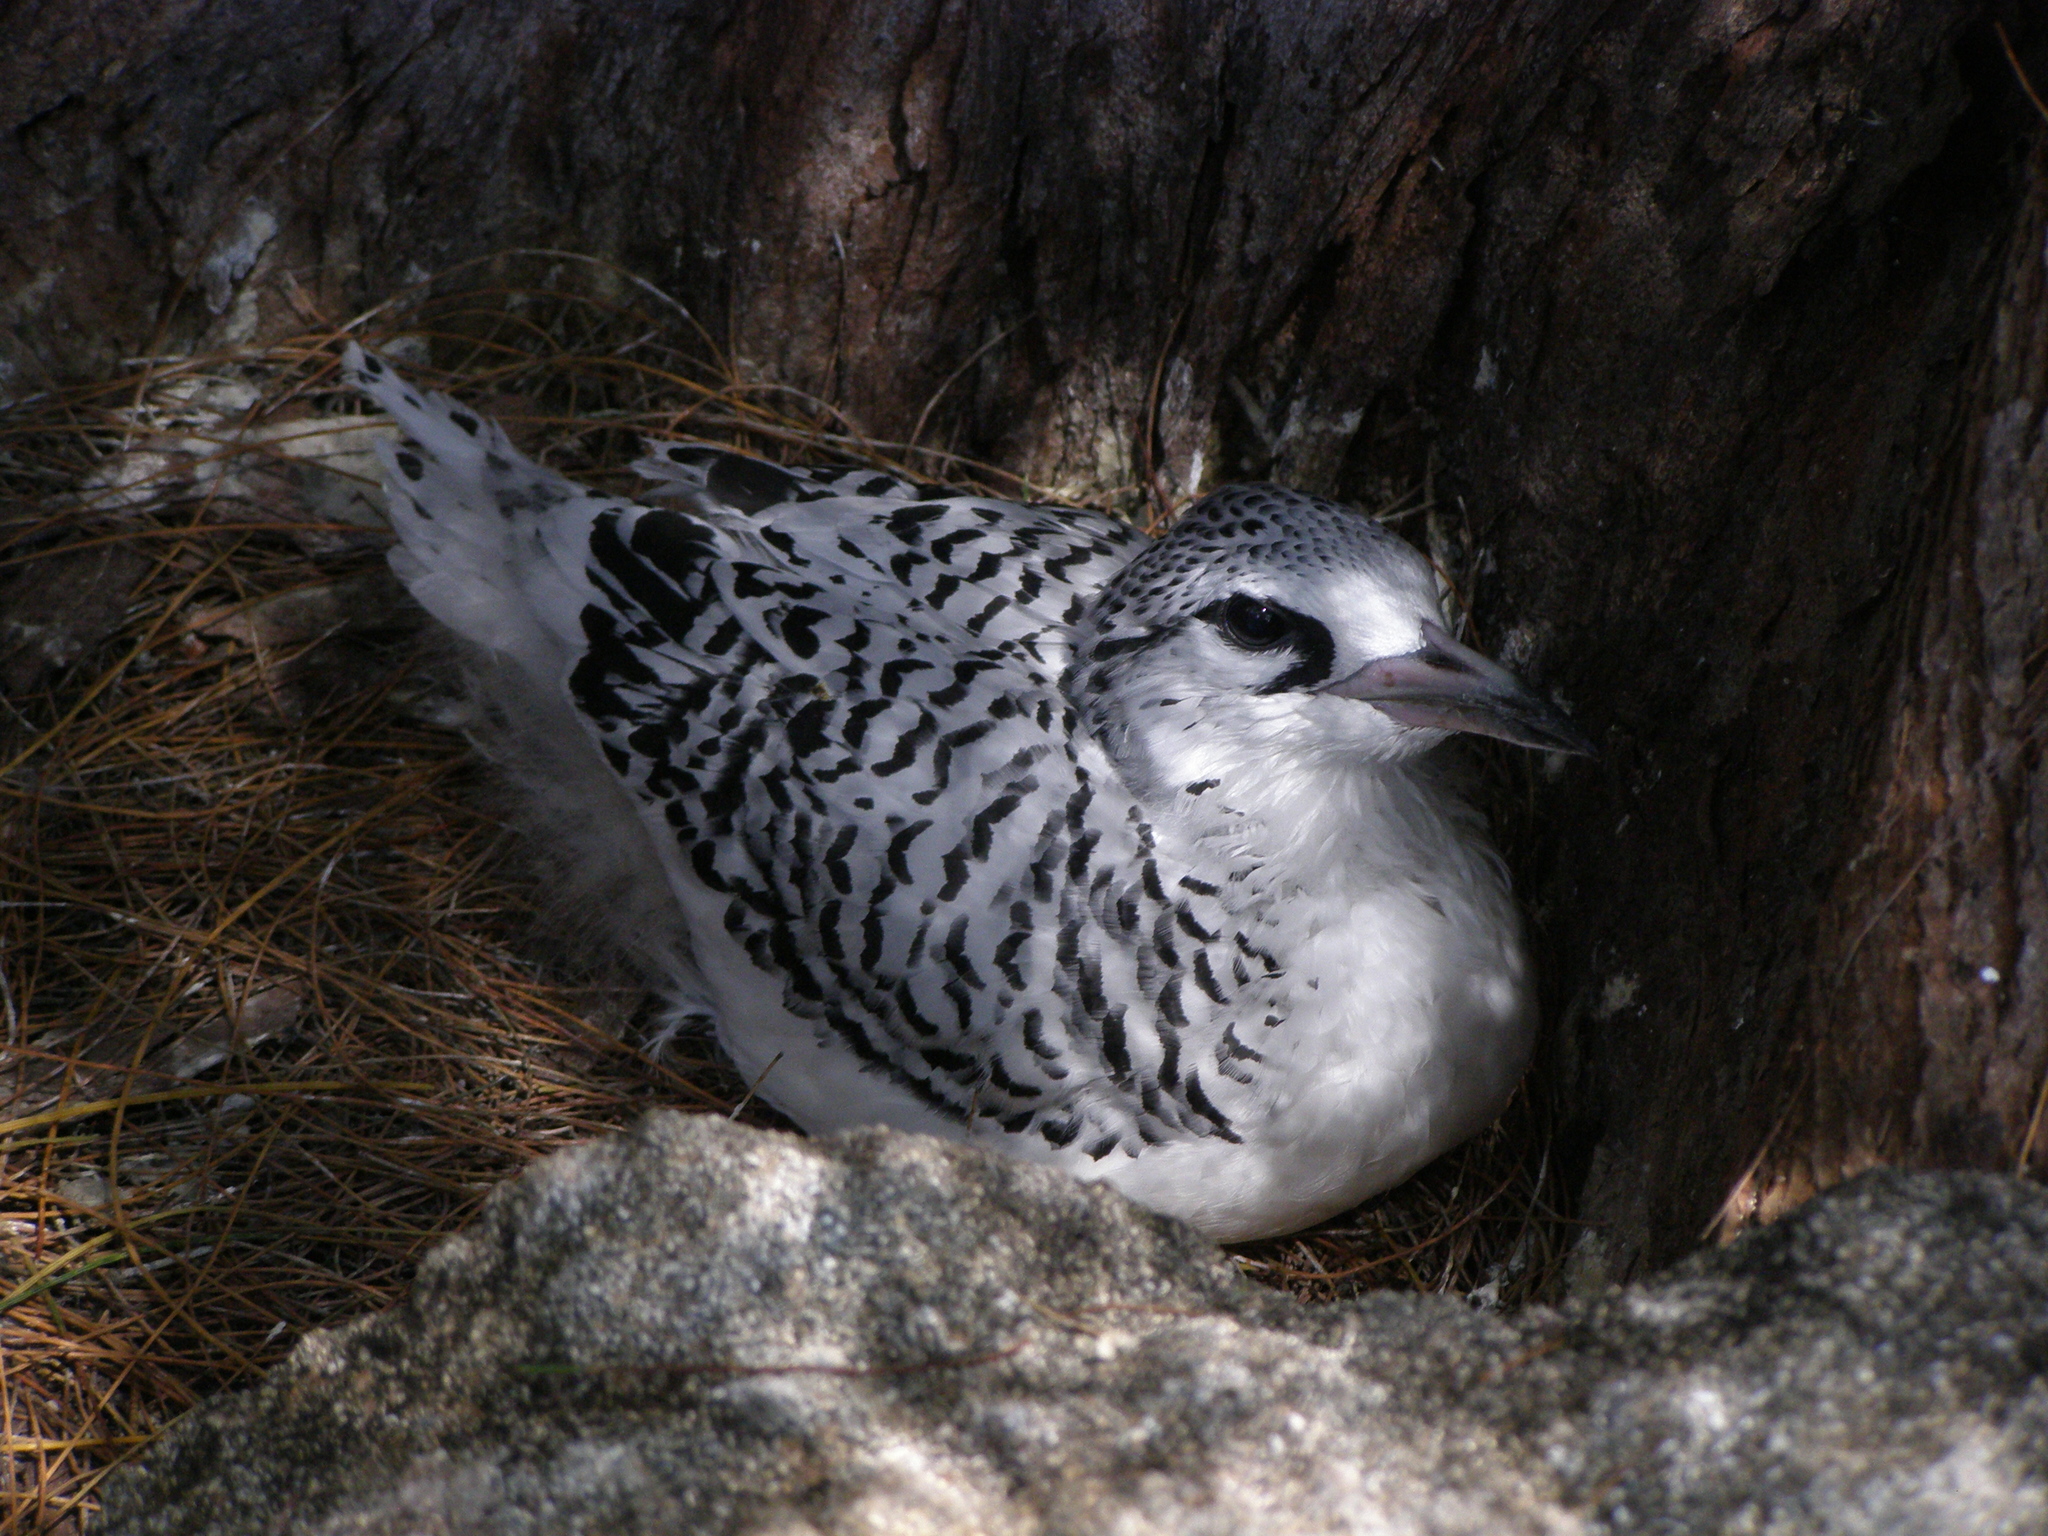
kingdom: Animalia
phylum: Chordata
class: Aves
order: Phaethontiformes
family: Phaethontidae
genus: Phaethon
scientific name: Phaethon lepturus
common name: White-tailed tropicbird
